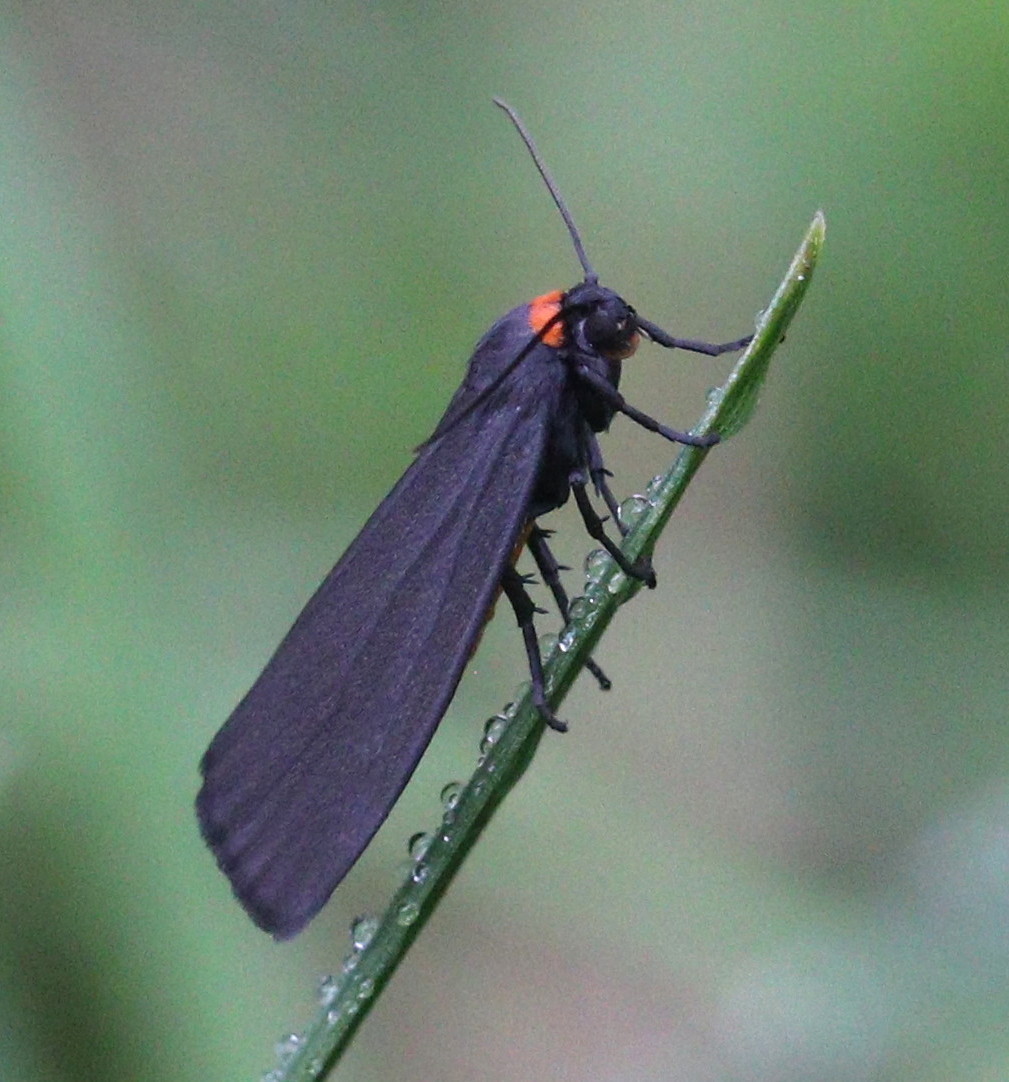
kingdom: Animalia
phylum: Arthropoda
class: Insecta
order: Lepidoptera
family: Erebidae
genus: Atolmis
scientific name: Atolmis rubricollis
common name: Red-necked footman
